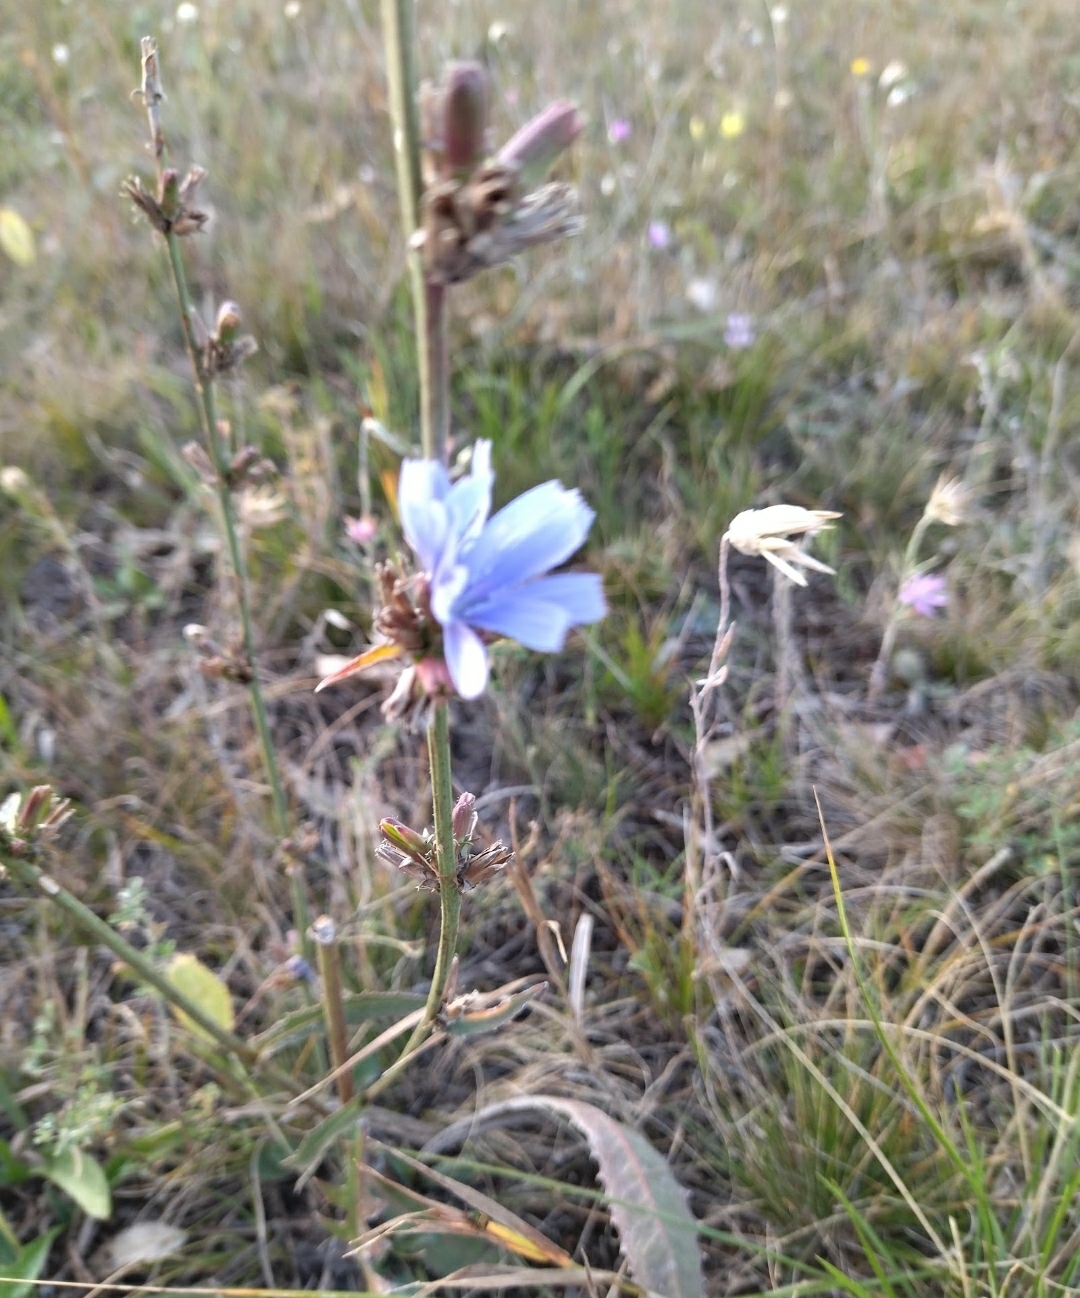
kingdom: Plantae
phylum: Tracheophyta
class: Magnoliopsida
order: Asterales
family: Asteraceae
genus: Cichorium
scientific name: Cichorium intybus
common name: Chicory
